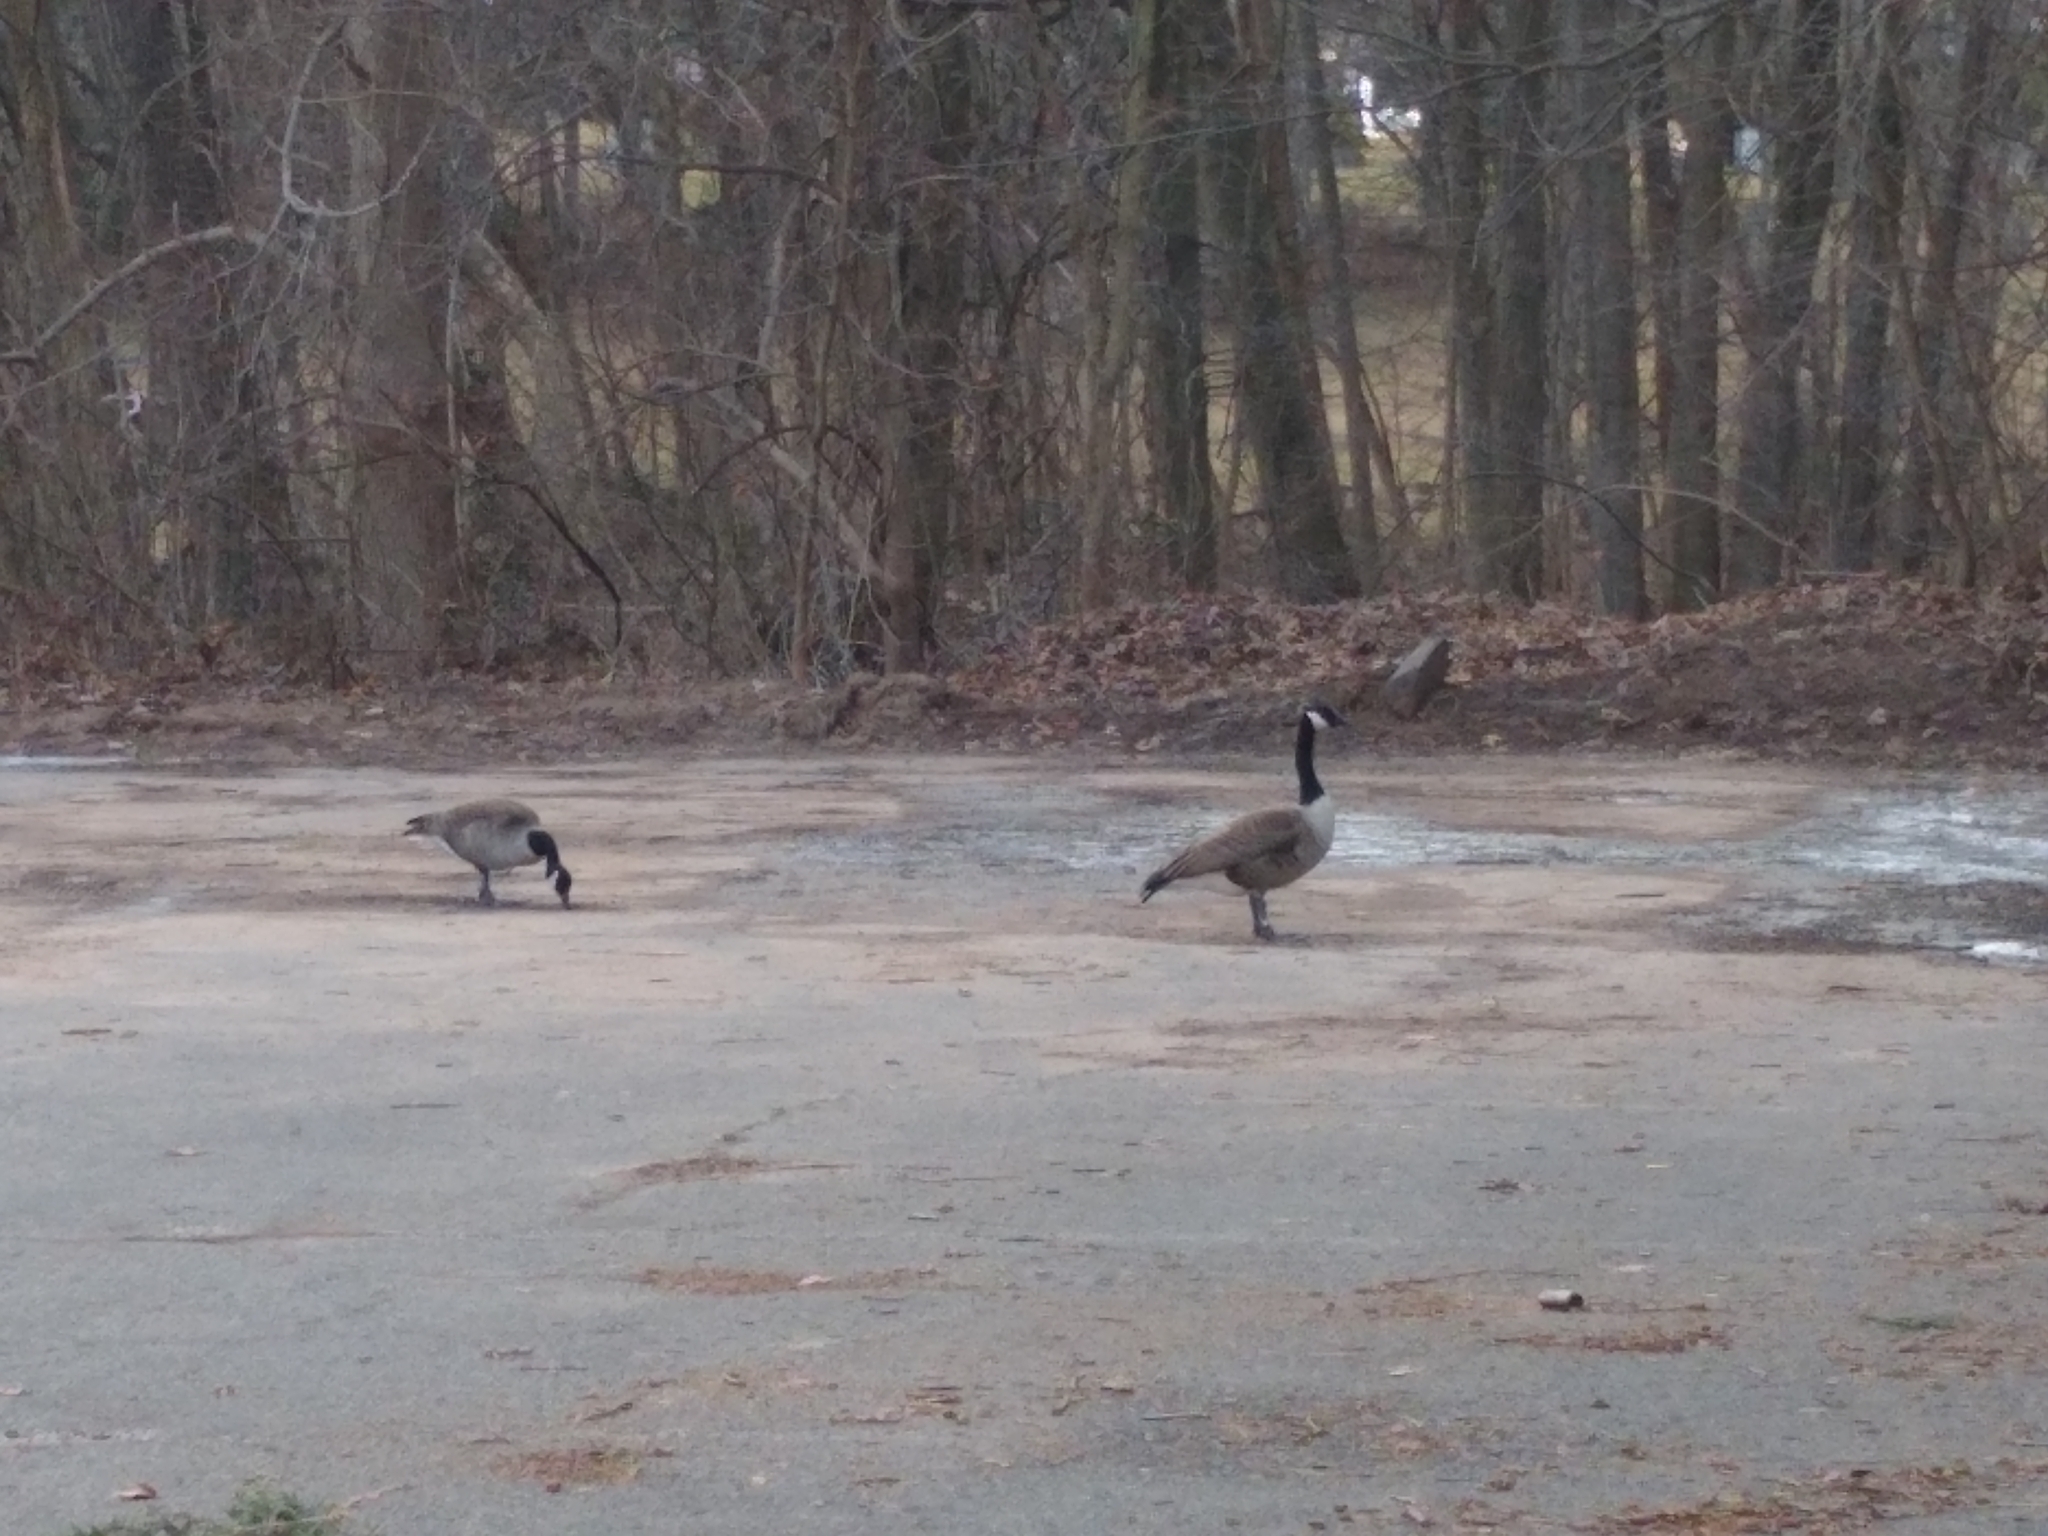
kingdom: Animalia
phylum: Chordata
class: Aves
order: Anseriformes
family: Anatidae
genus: Branta
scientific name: Branta canadensis
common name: Canada goose
